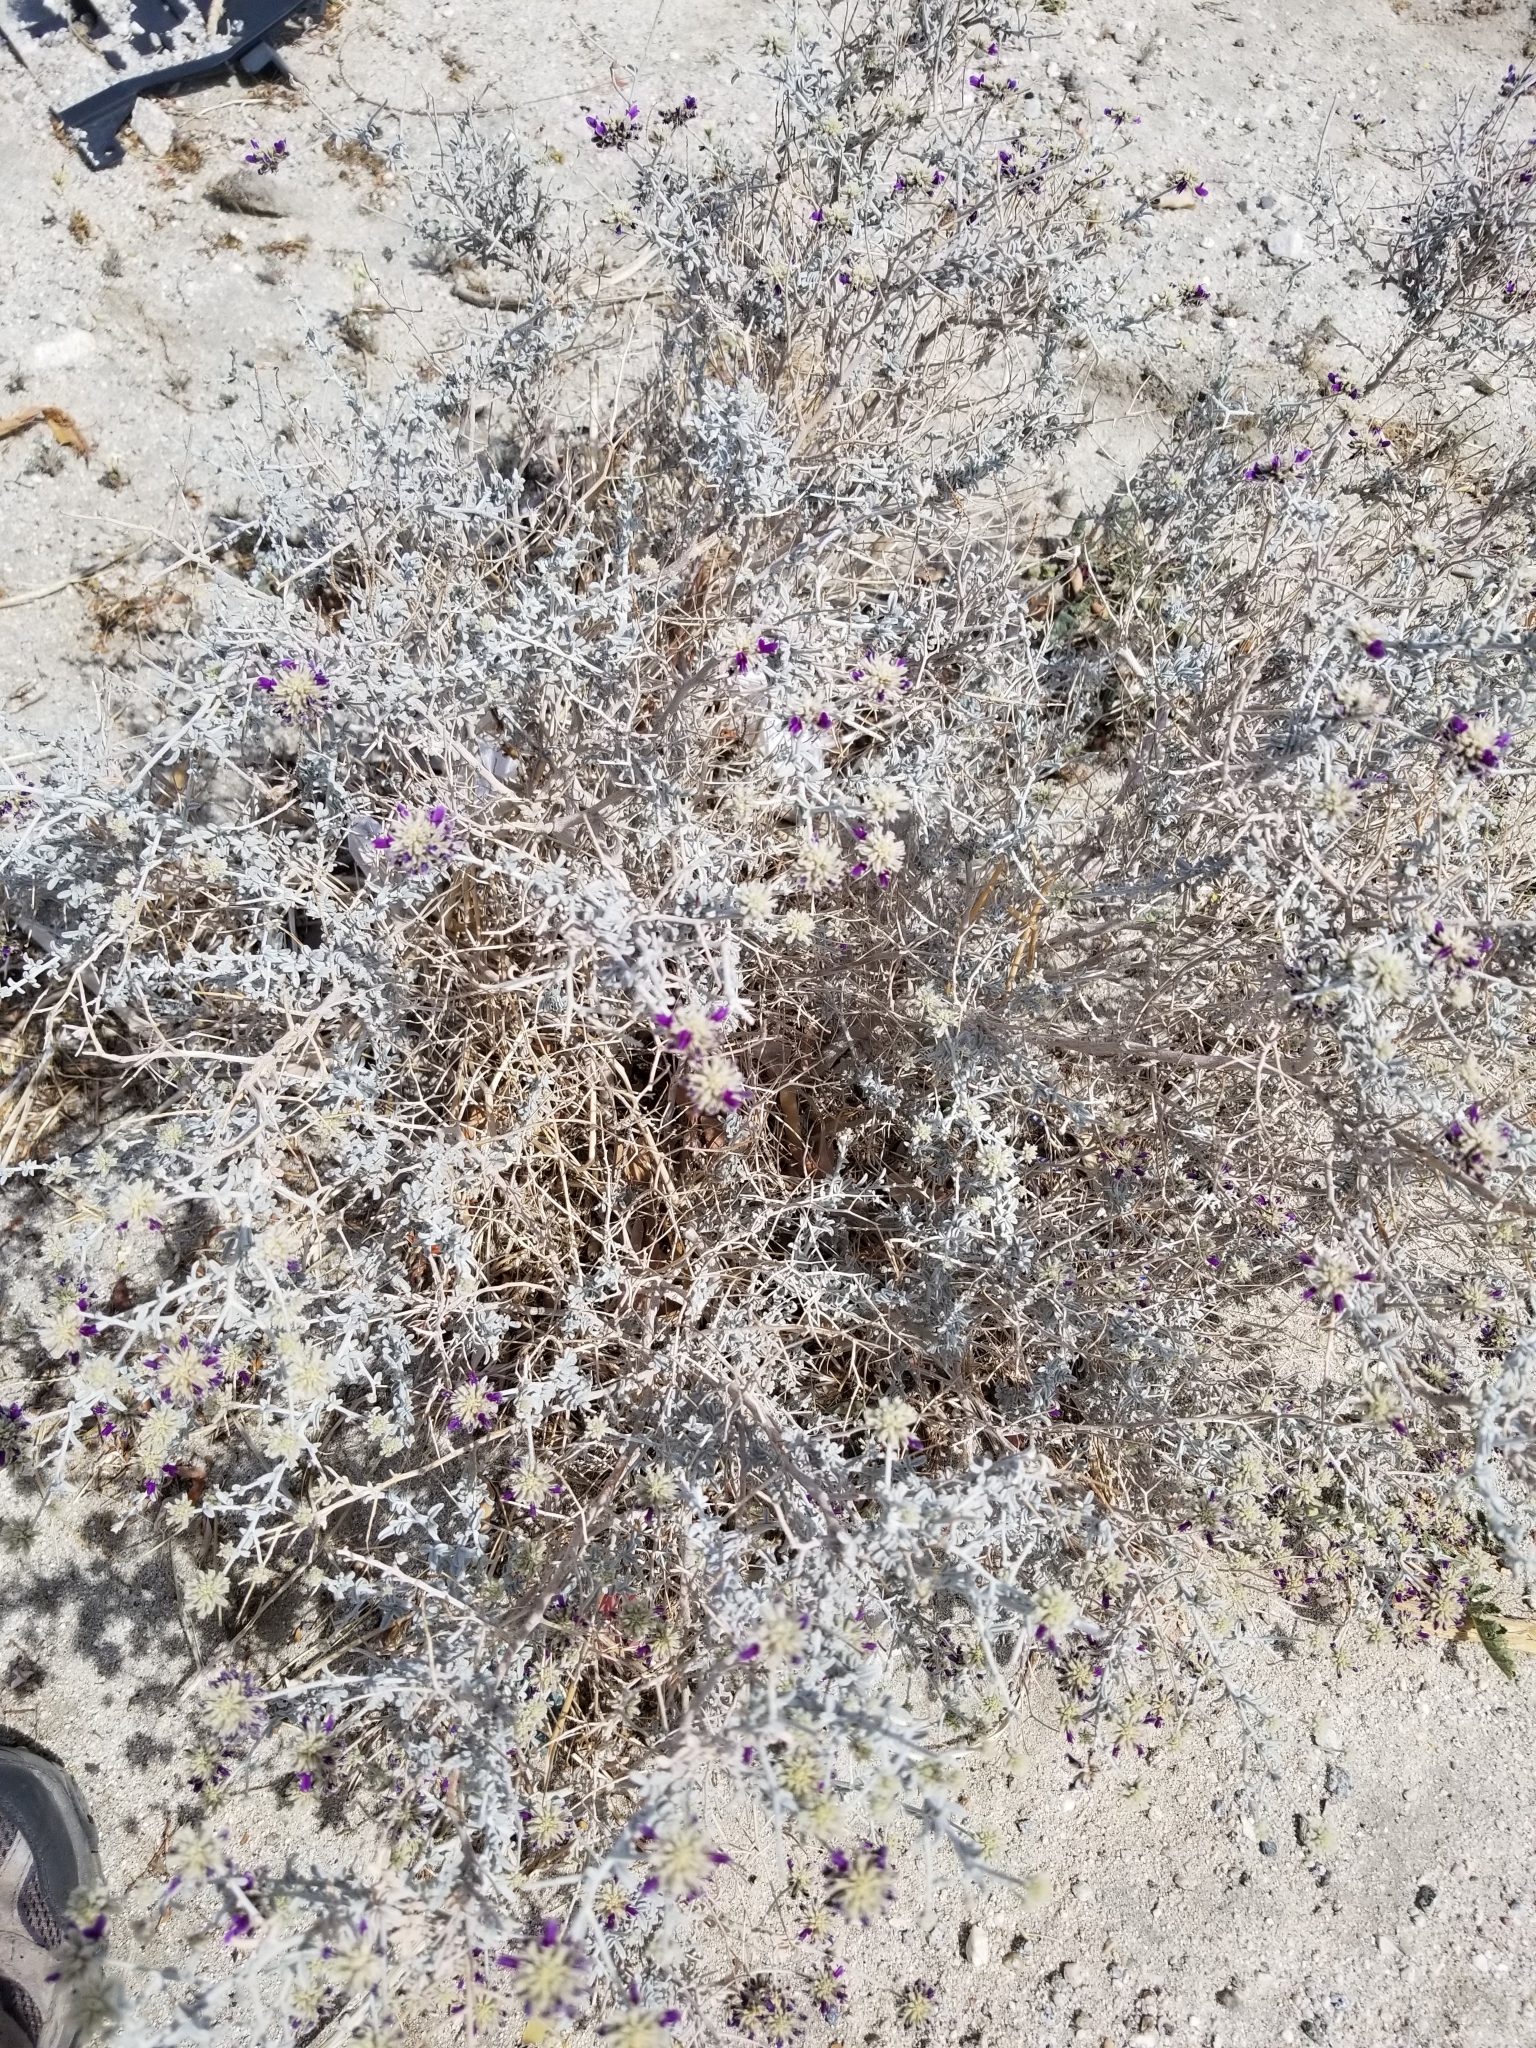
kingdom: Plantae
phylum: Tracheophyta
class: Magnoliopsida
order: Fabales
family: Fabaceae
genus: Psorothamnus
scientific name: Psorothamnus emoryi
